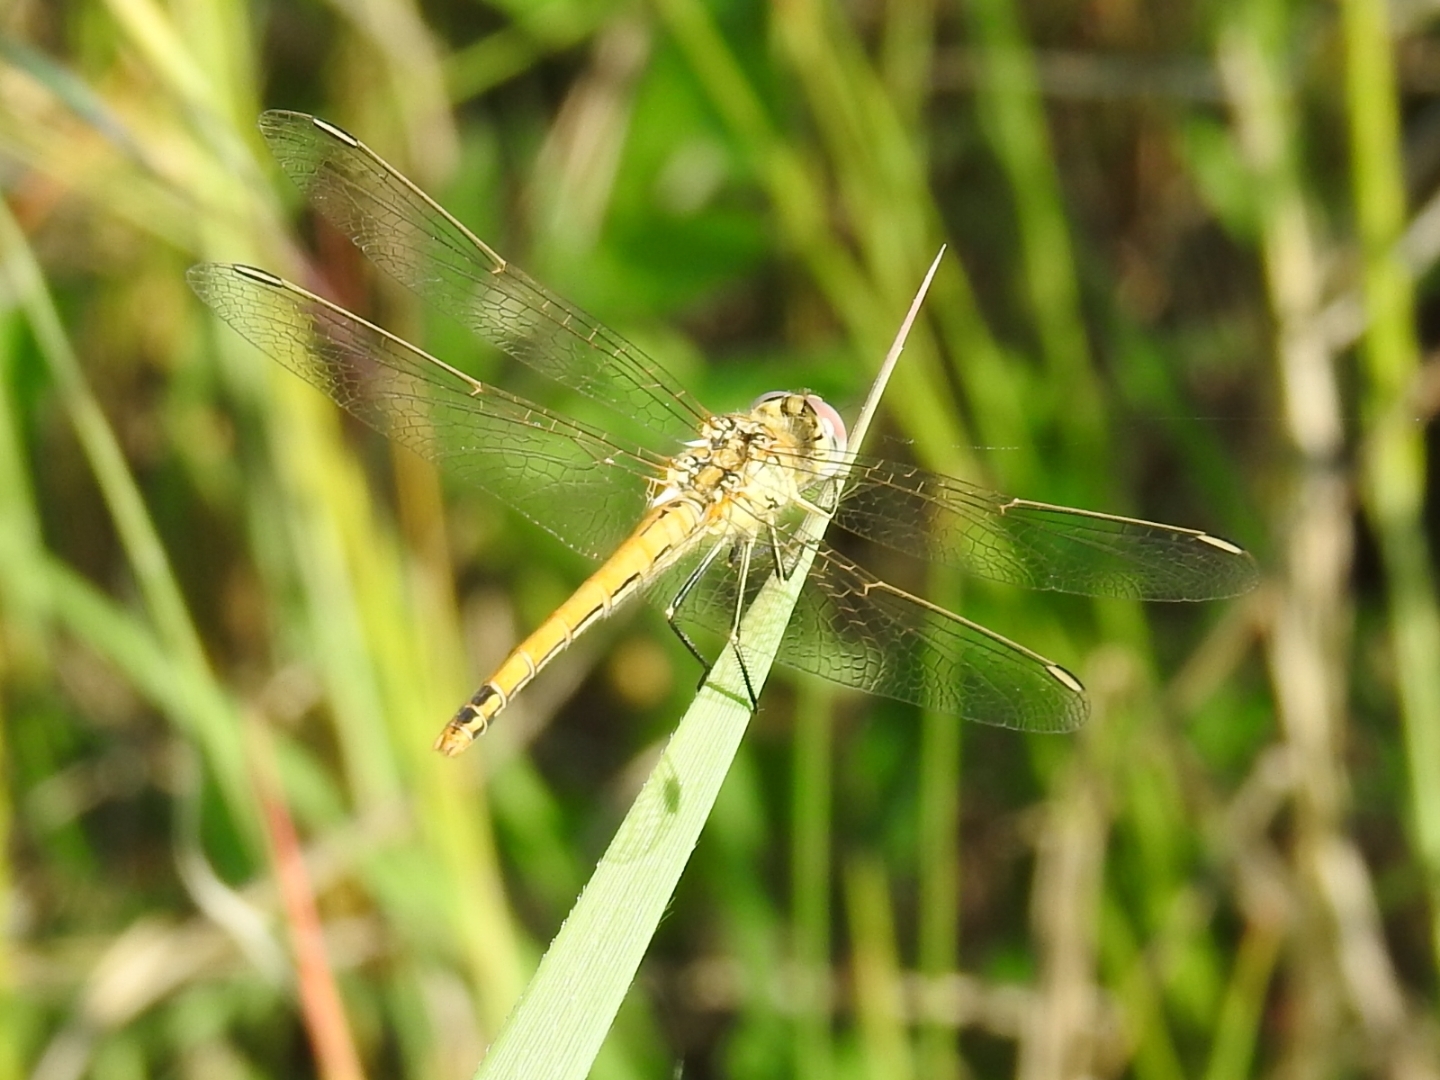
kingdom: Animalia
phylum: Arthropoda
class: Insecta
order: Odonata
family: Libellulidae
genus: Sympetrum
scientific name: Sympetrum fonscolombii
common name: Red-veined darter
